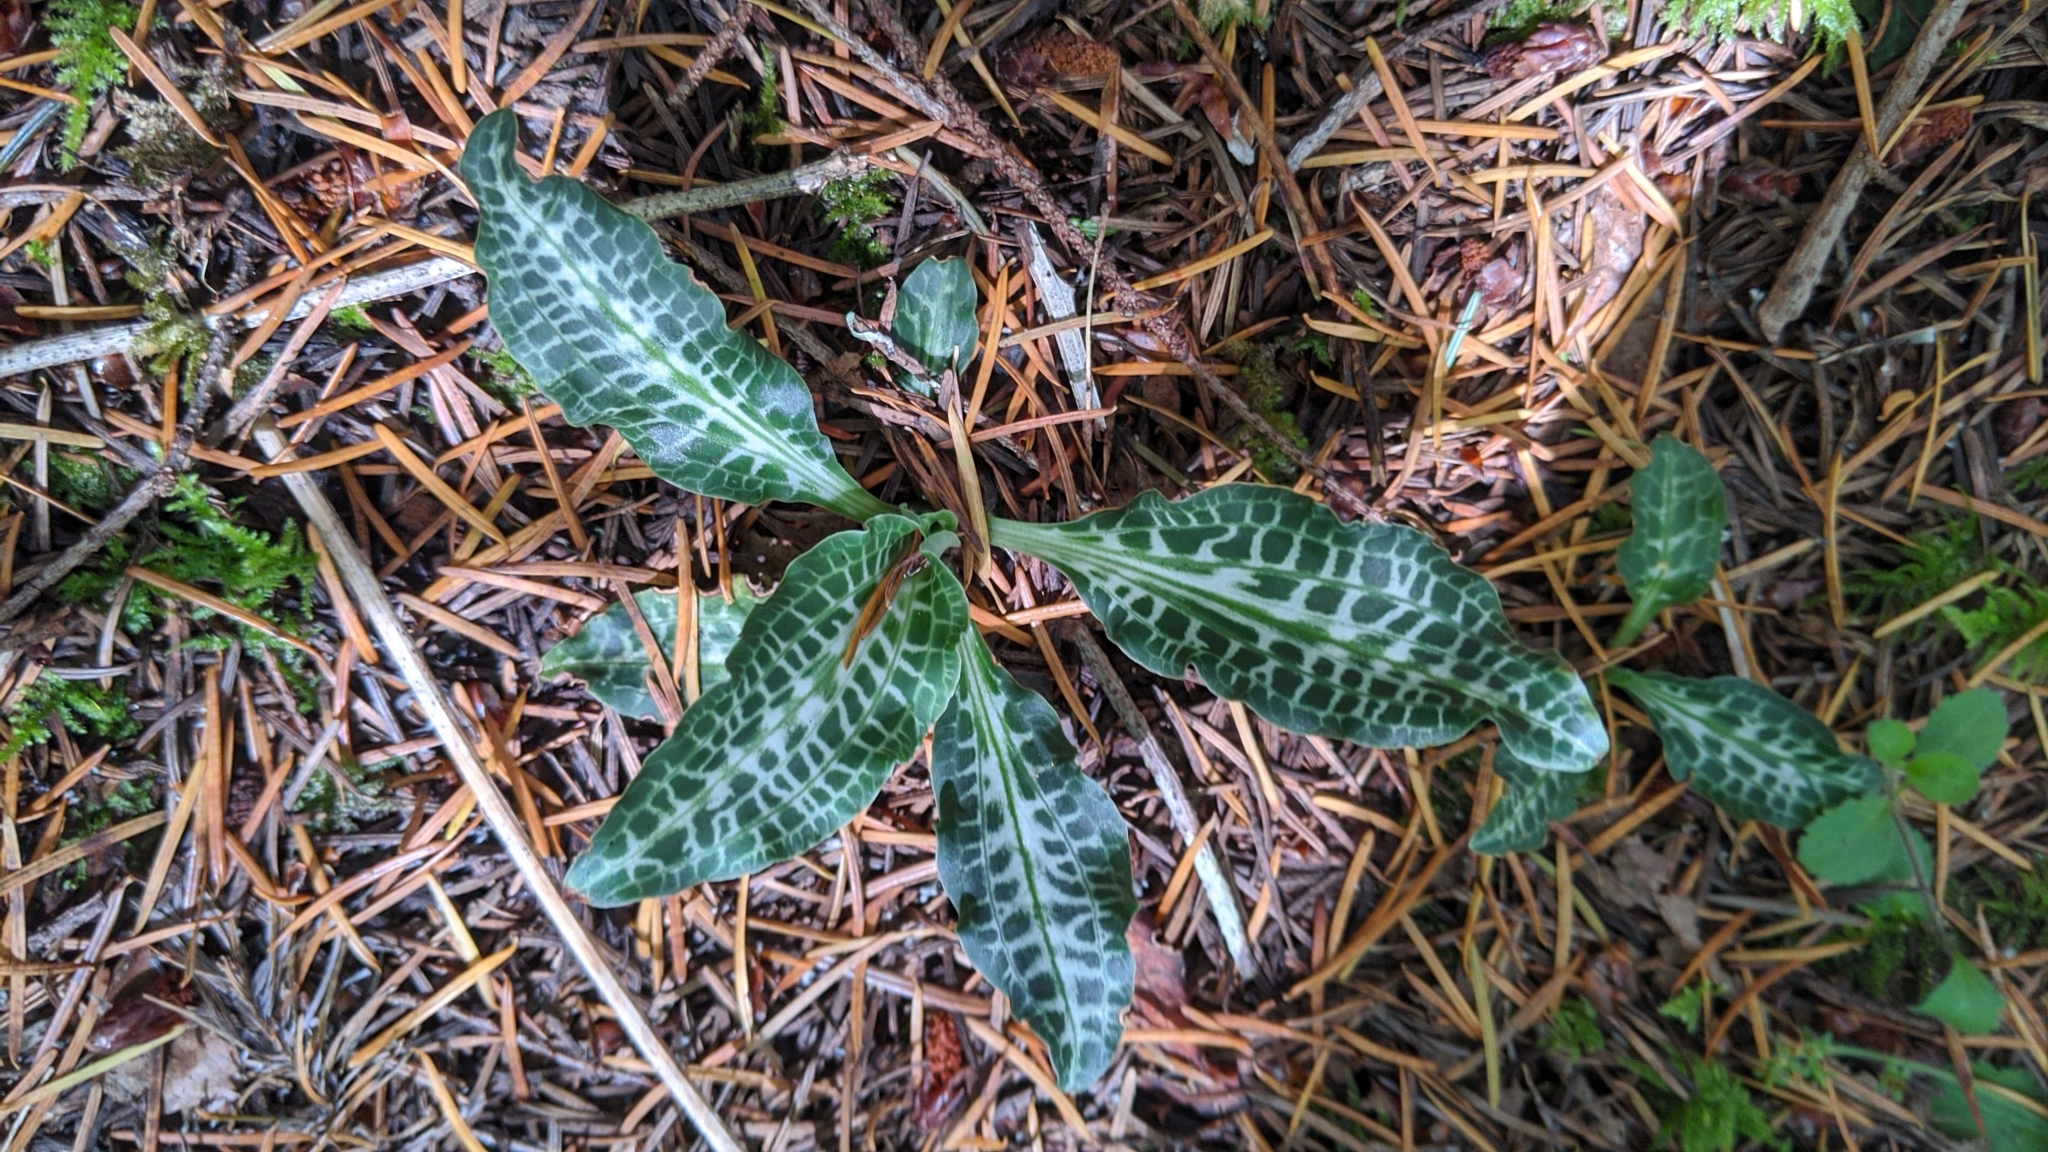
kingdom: Plantae
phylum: Tracheophyta
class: Liliopsida
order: Asparagales
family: Orchidaceae
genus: Goodyera
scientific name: Goodyera oblongifolia
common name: Giant rattlesnake-plantain
